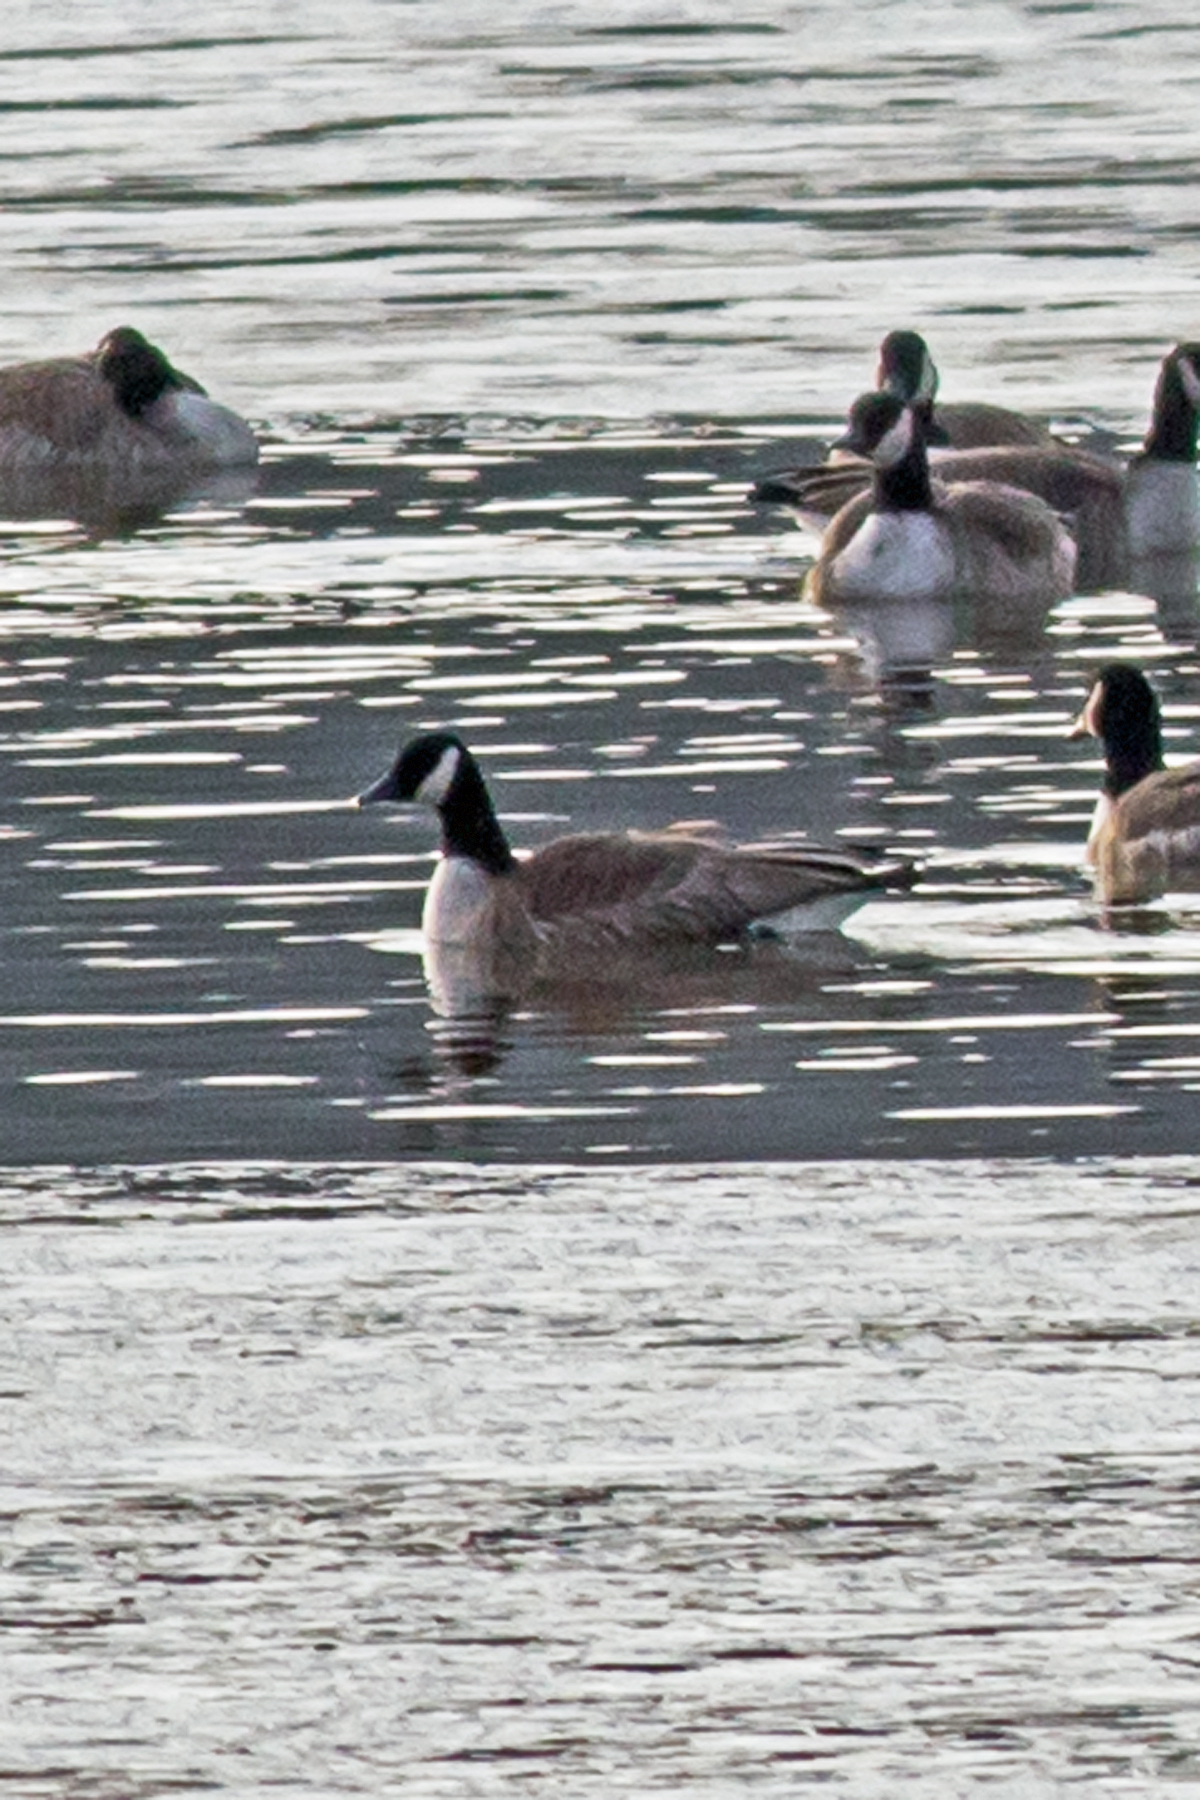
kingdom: Animalia
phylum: Chordata
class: Aves
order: Anseriformes
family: Anatidae
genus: Branta
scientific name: Branta canadensis
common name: Canada goose
